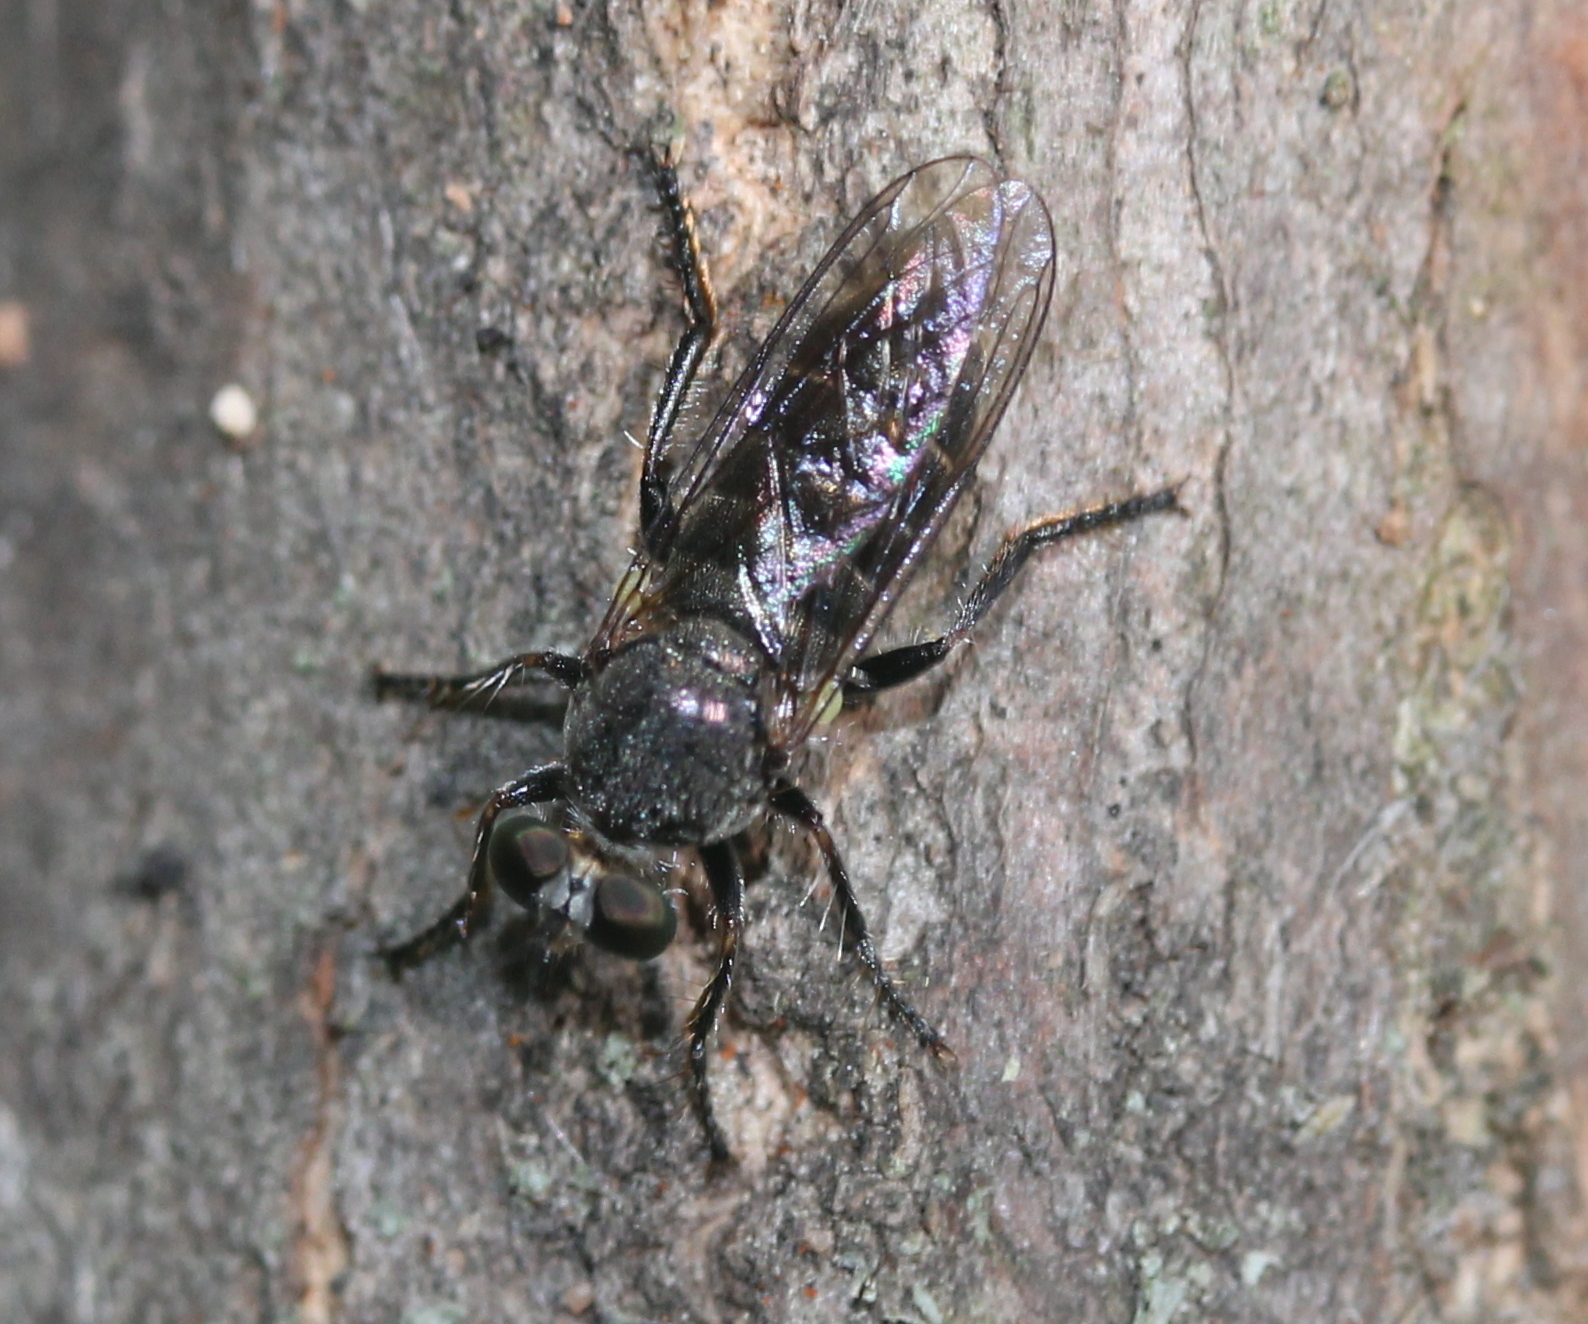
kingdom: Animalia
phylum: Arthropoda
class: Insecta
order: Diptera
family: Asilidae
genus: Atomosia
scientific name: Atomosia puella
